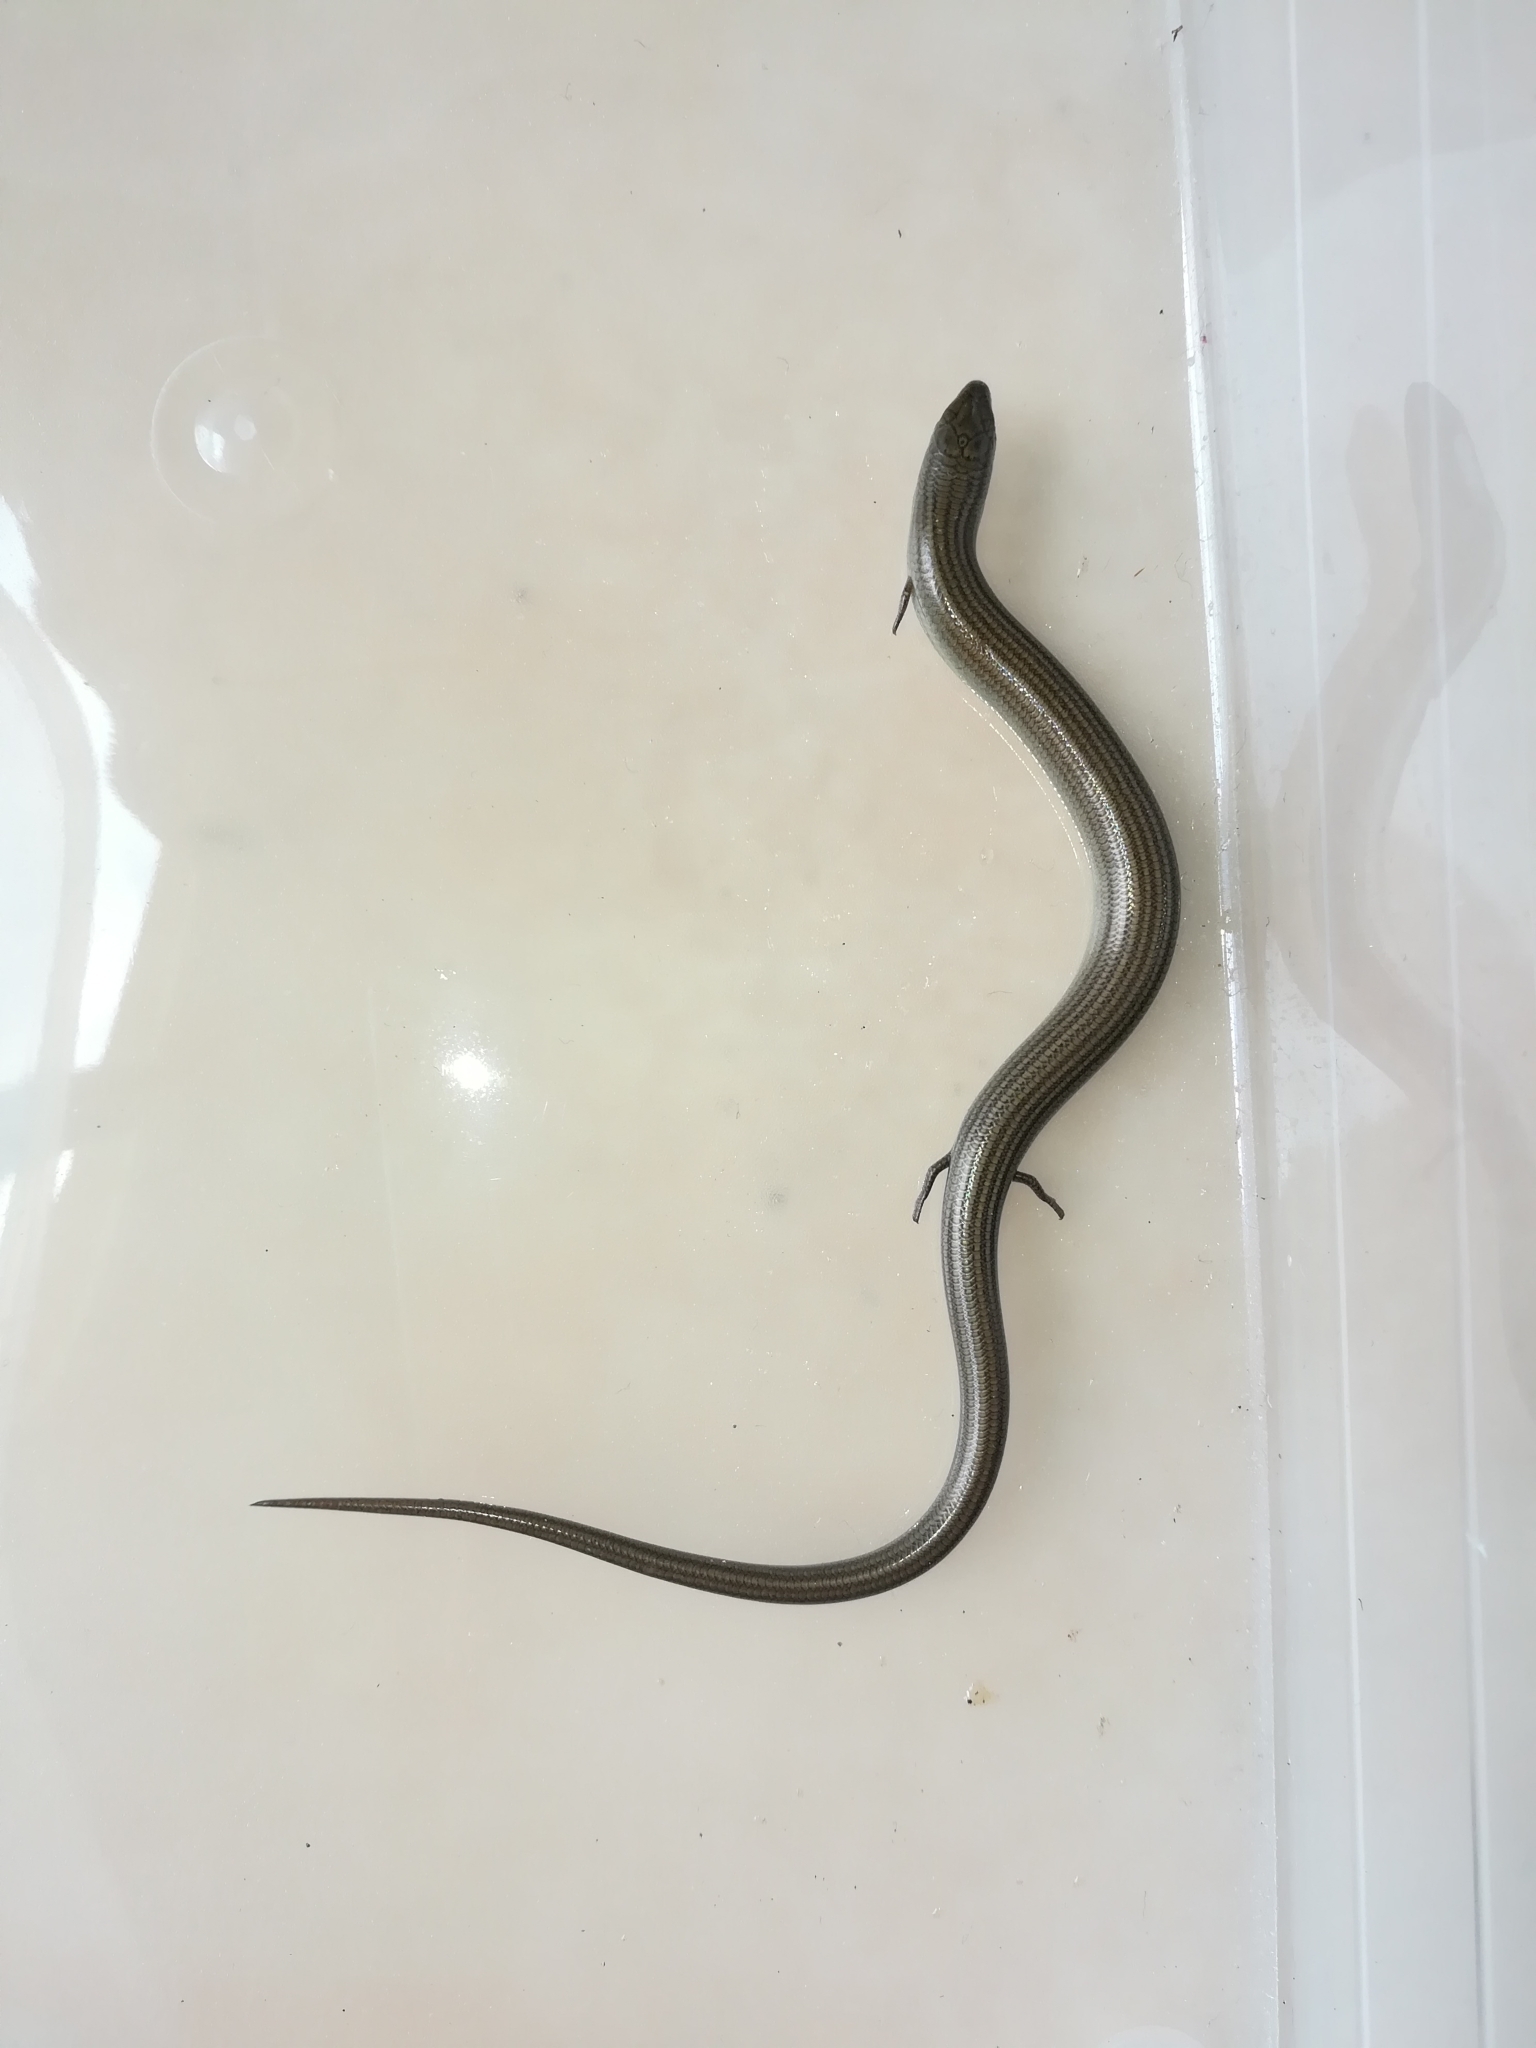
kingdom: Animalia
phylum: Chordata
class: Squamata
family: Scincidae
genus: Chalcides
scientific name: Chalcides striatus
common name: Western (or iberian) three-toed skink
